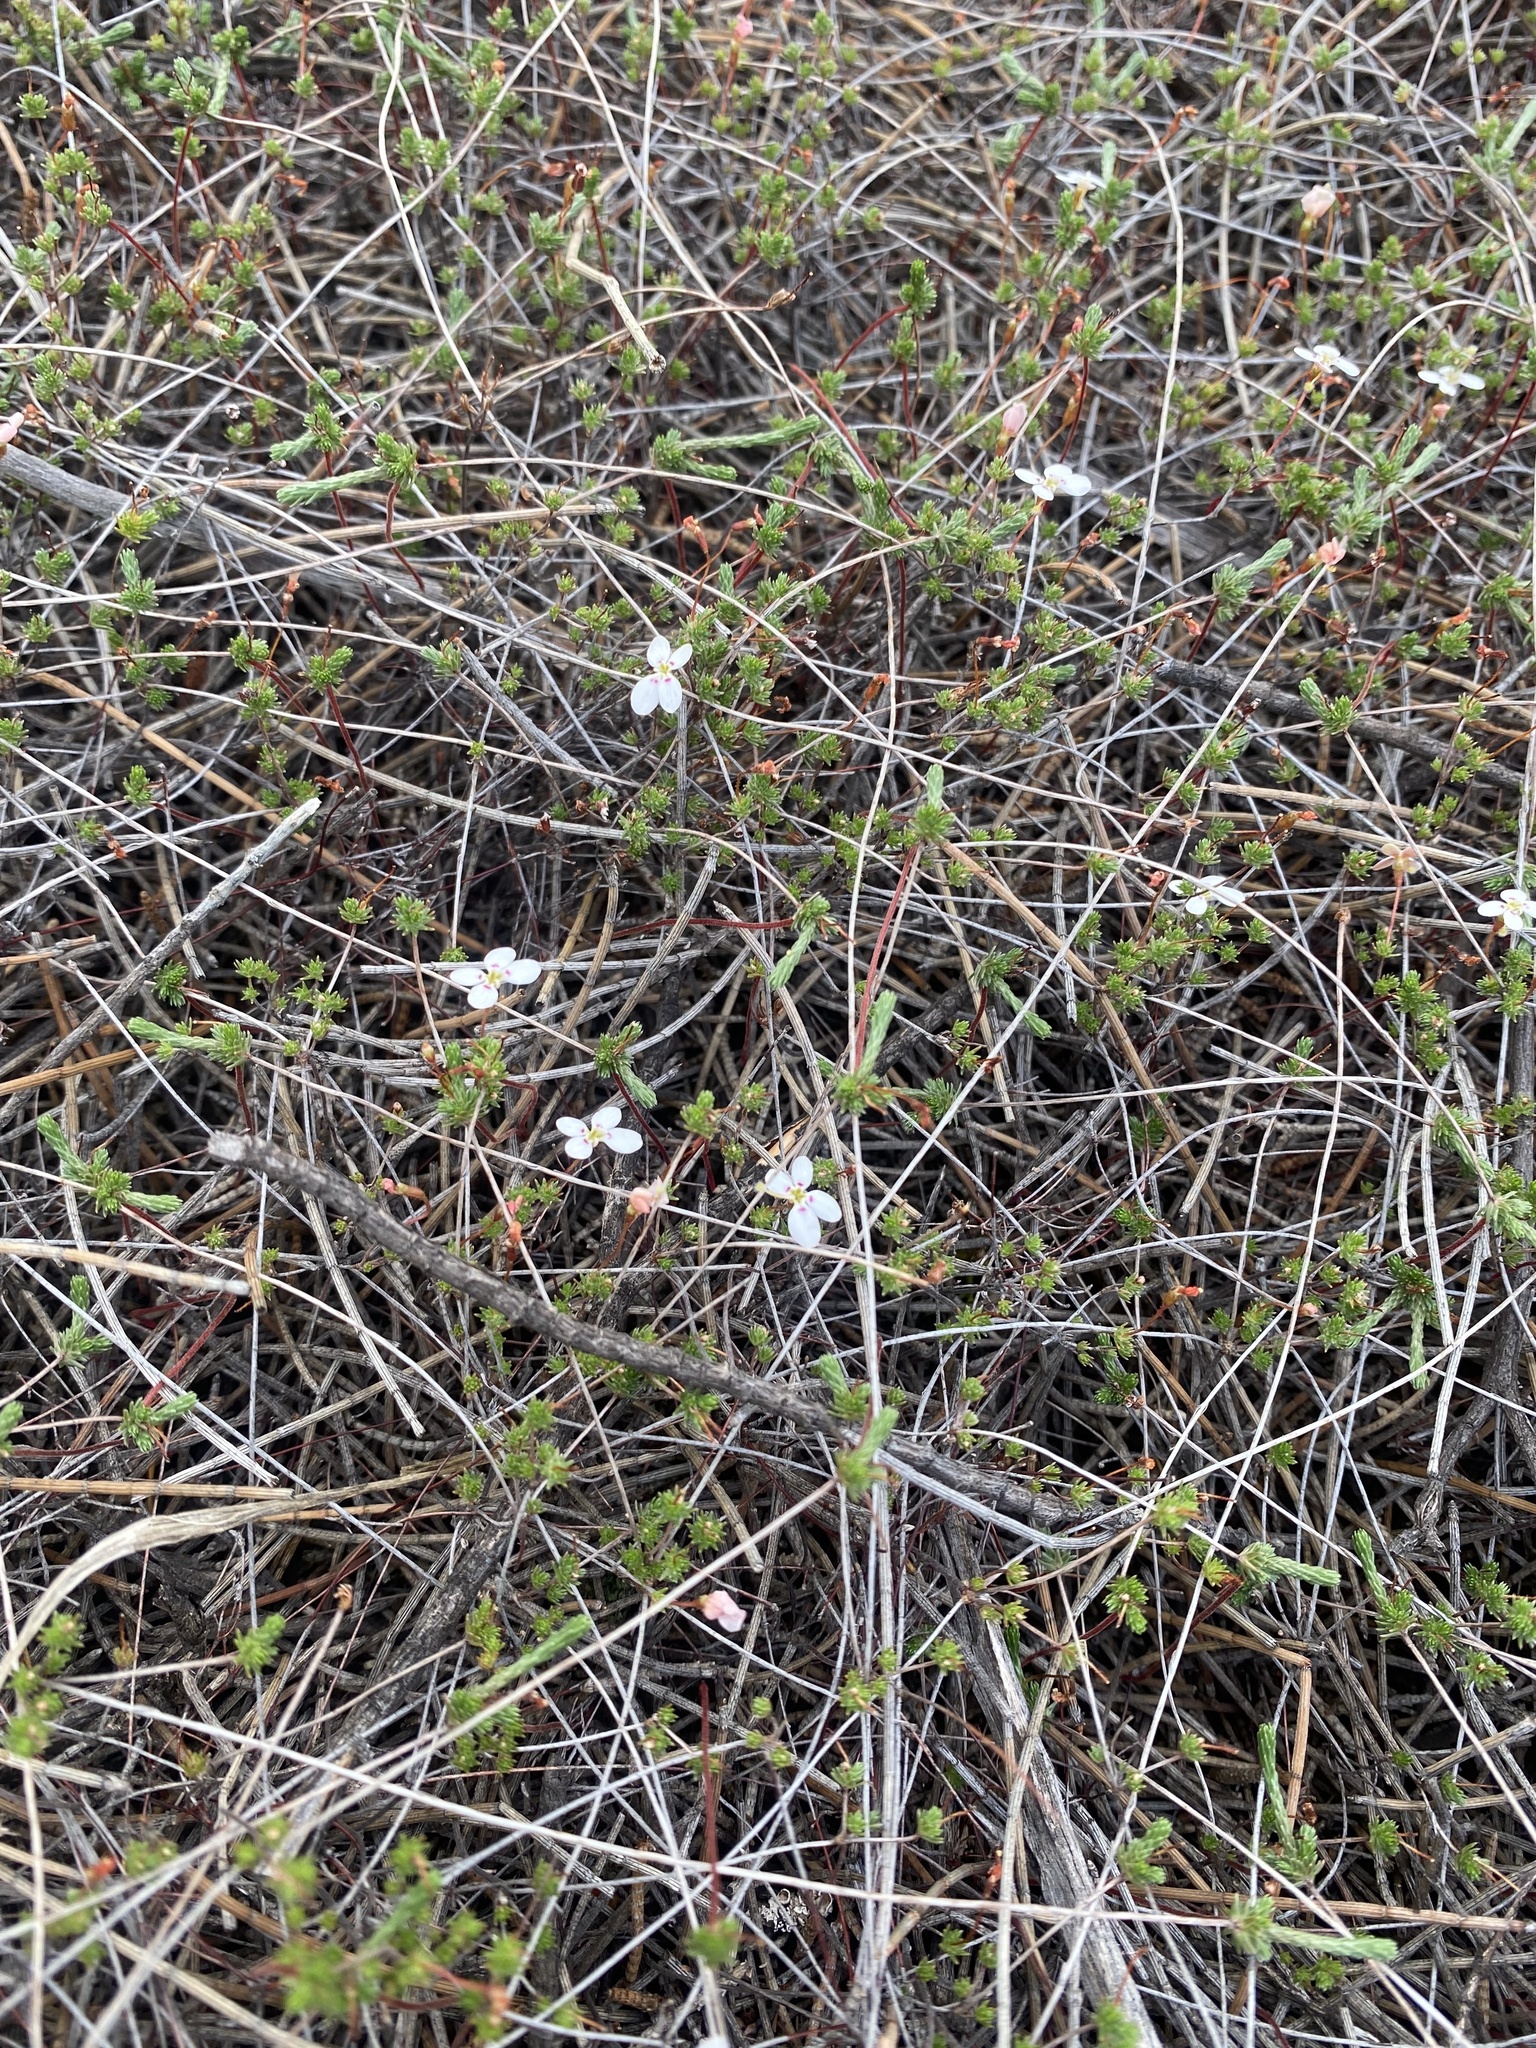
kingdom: Plantae
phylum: Tracheophyta
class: Magnoliopsida
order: Asterales
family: Stylidiaceae
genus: Stylidium
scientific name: Stylidium repens
